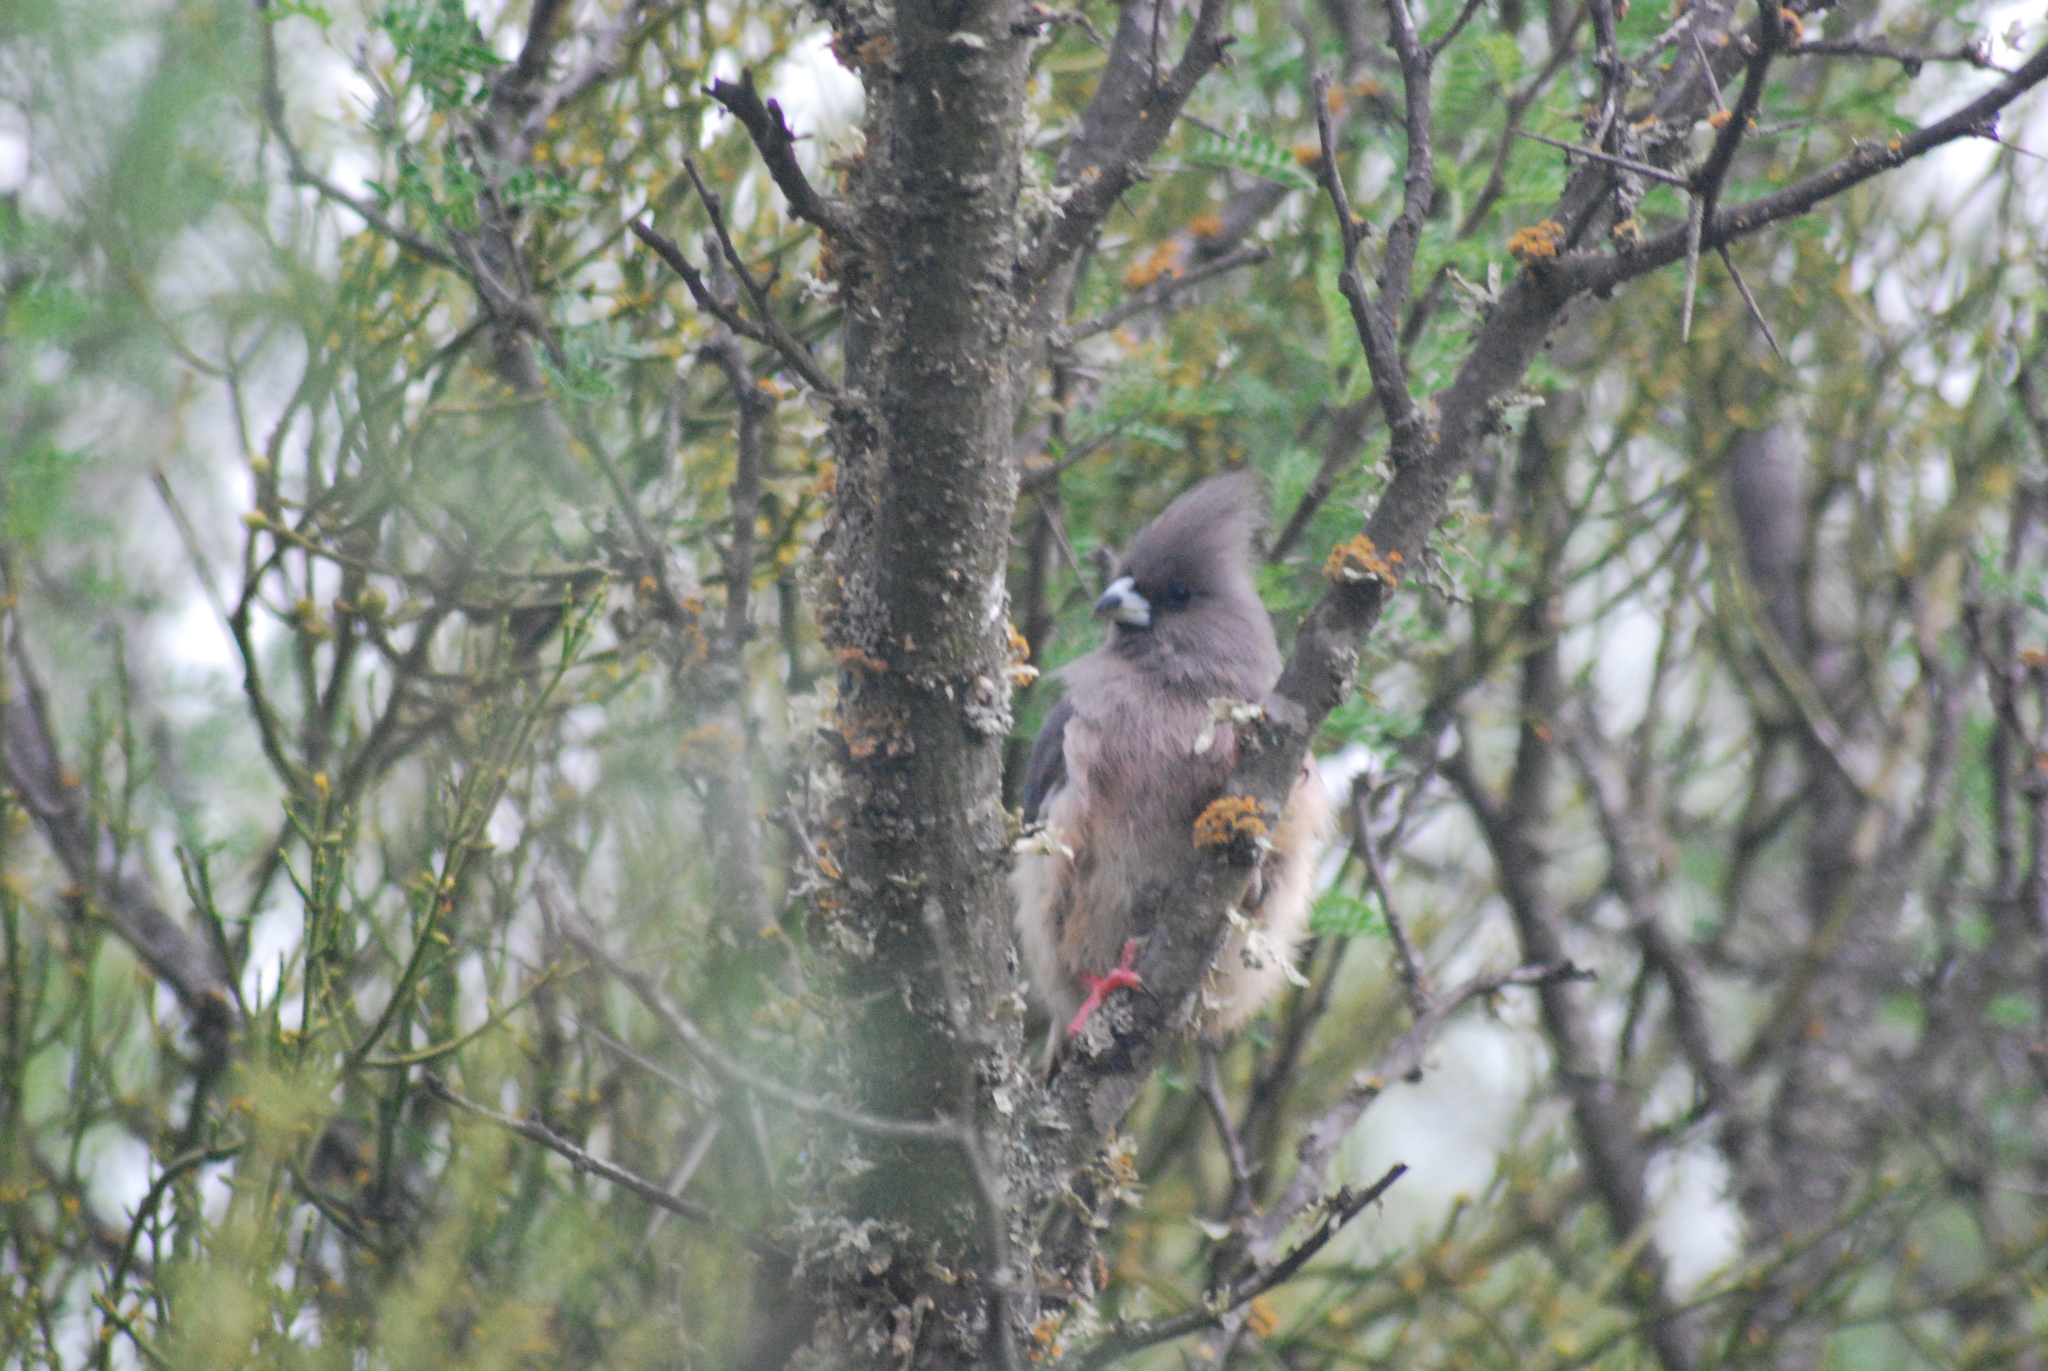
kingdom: Animalia
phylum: Chordata
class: Aves
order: Coliiformes
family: Coliidae
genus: Colius
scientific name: Colius colius
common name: White-backed mousebird
